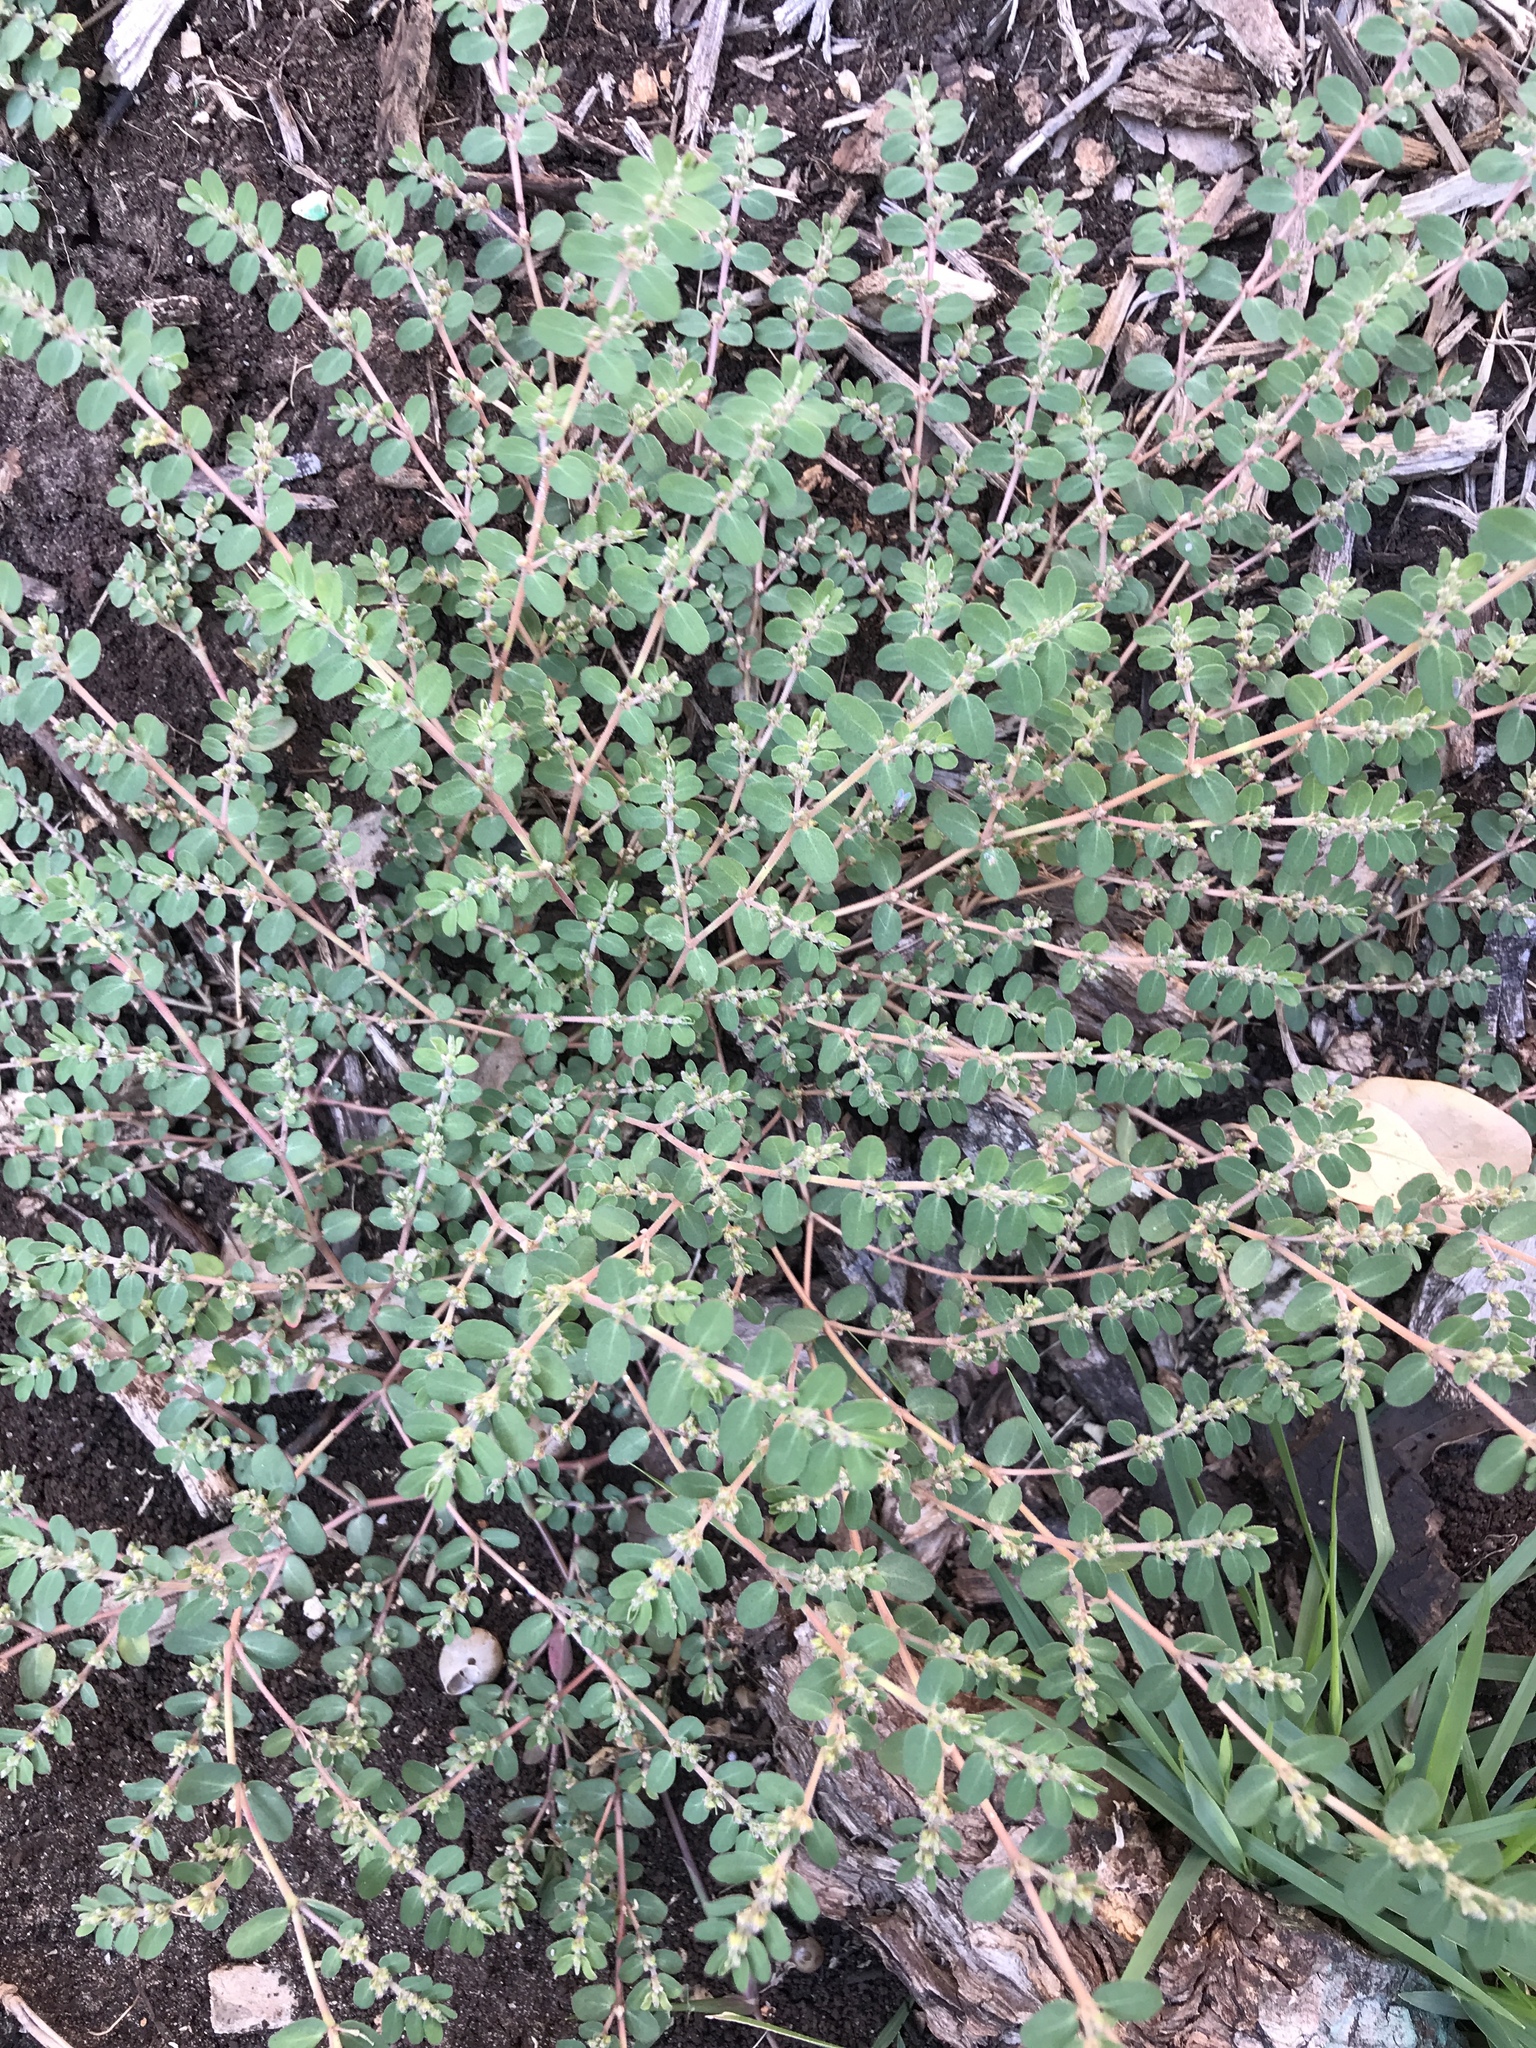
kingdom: Plantae
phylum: Tracheophyta
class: Magnoliopsida
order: Malpighiales
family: Euphorbiaceae
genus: Euphorbia
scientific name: Euphorbia prostrata
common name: Prostrate sandmat
